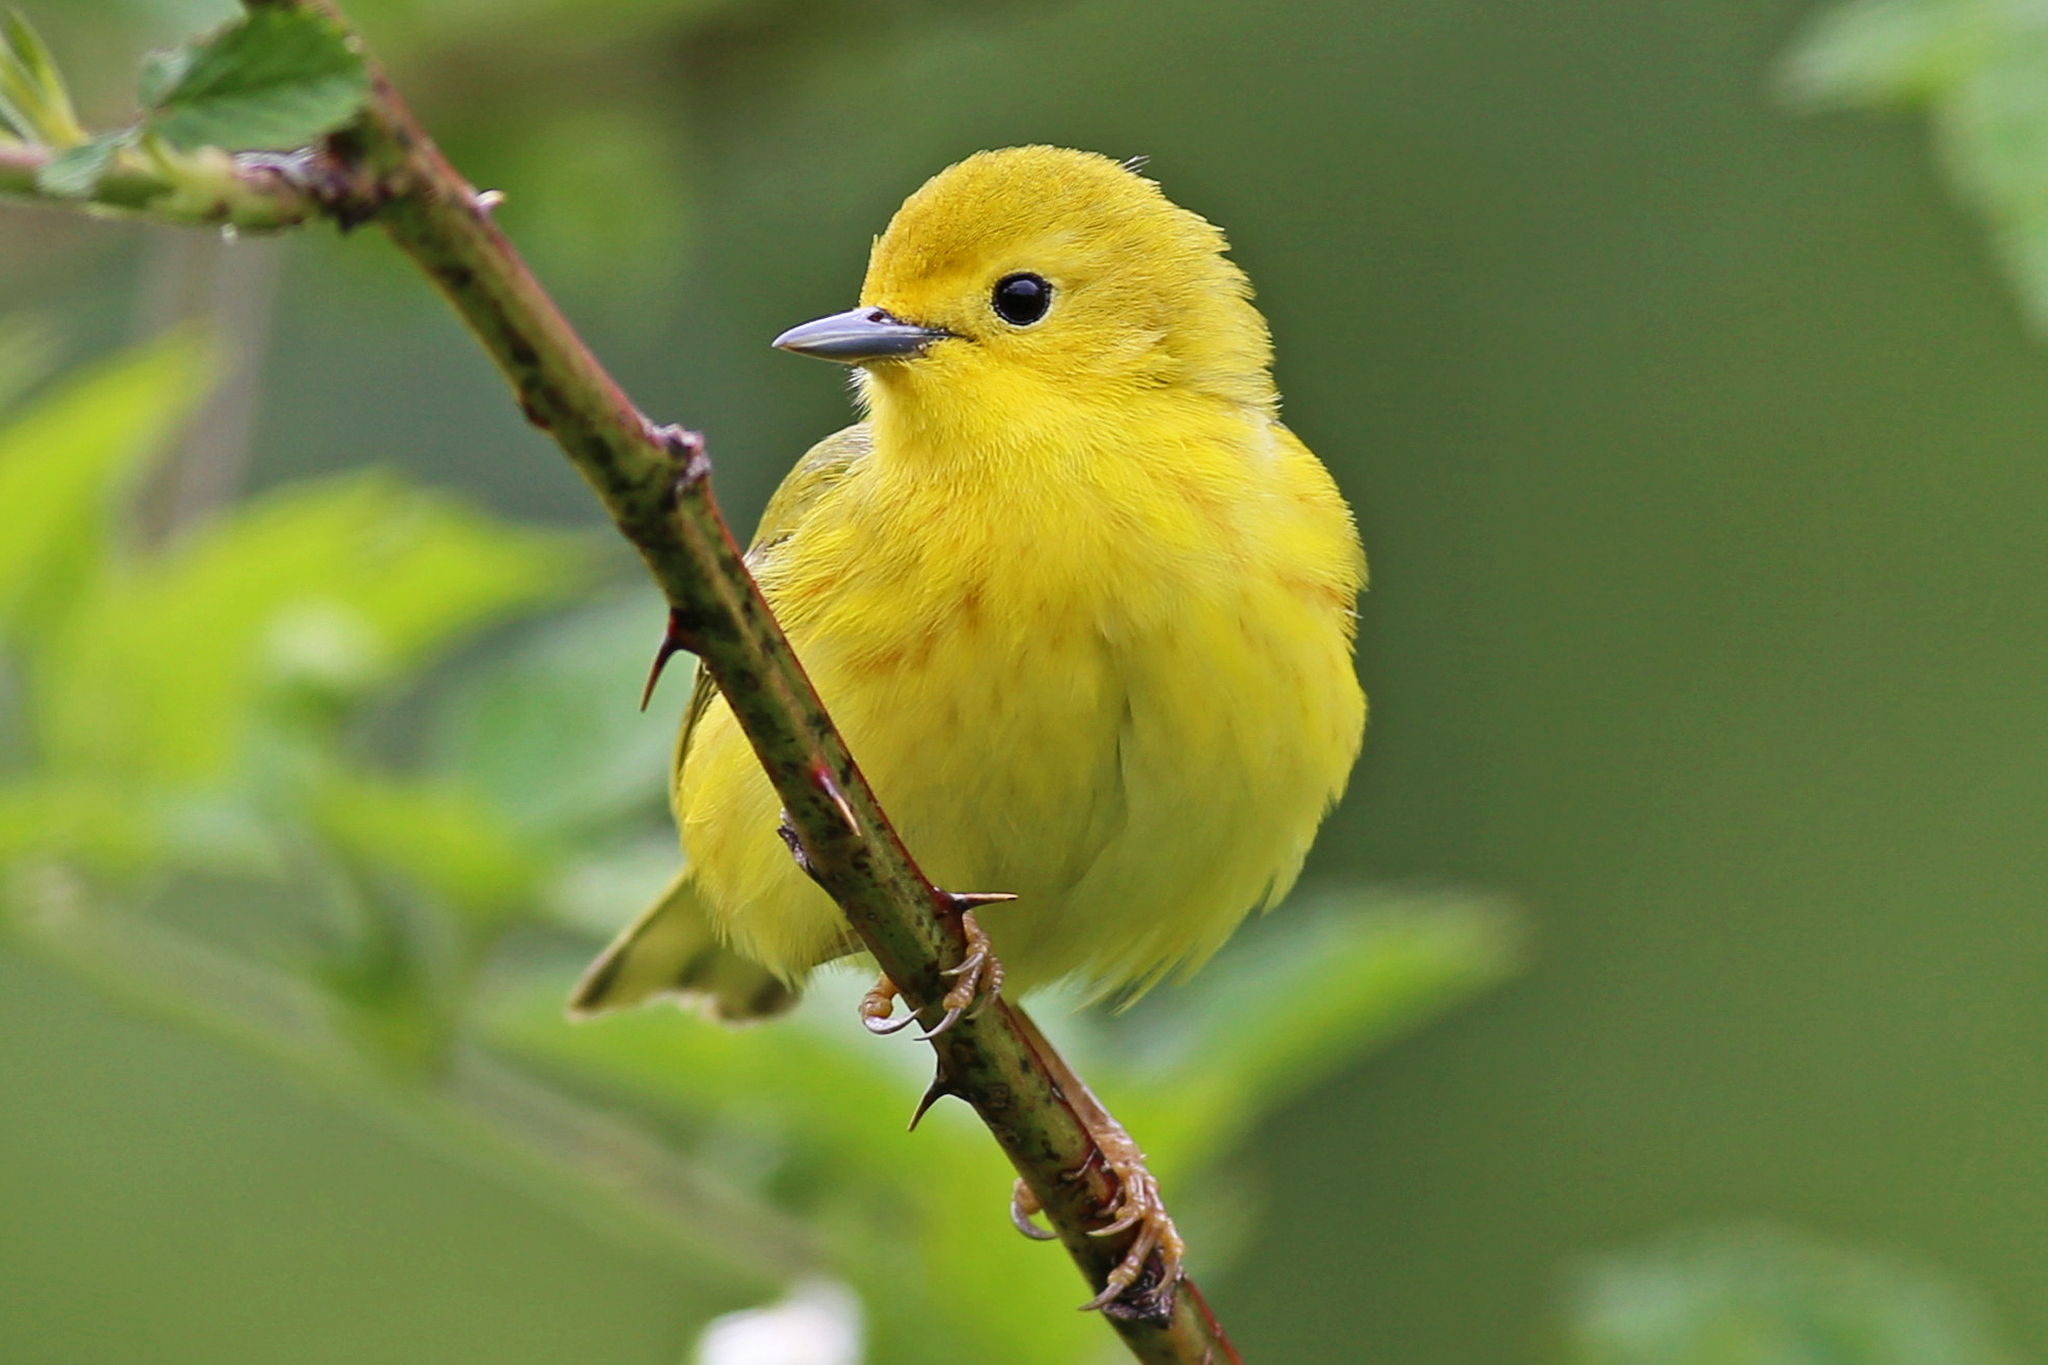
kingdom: Animalia
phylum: Chordata
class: Aves
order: Passeriformes
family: Parulidae
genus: Setophaga
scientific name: Setophaga petechia
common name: Yellow warbler
